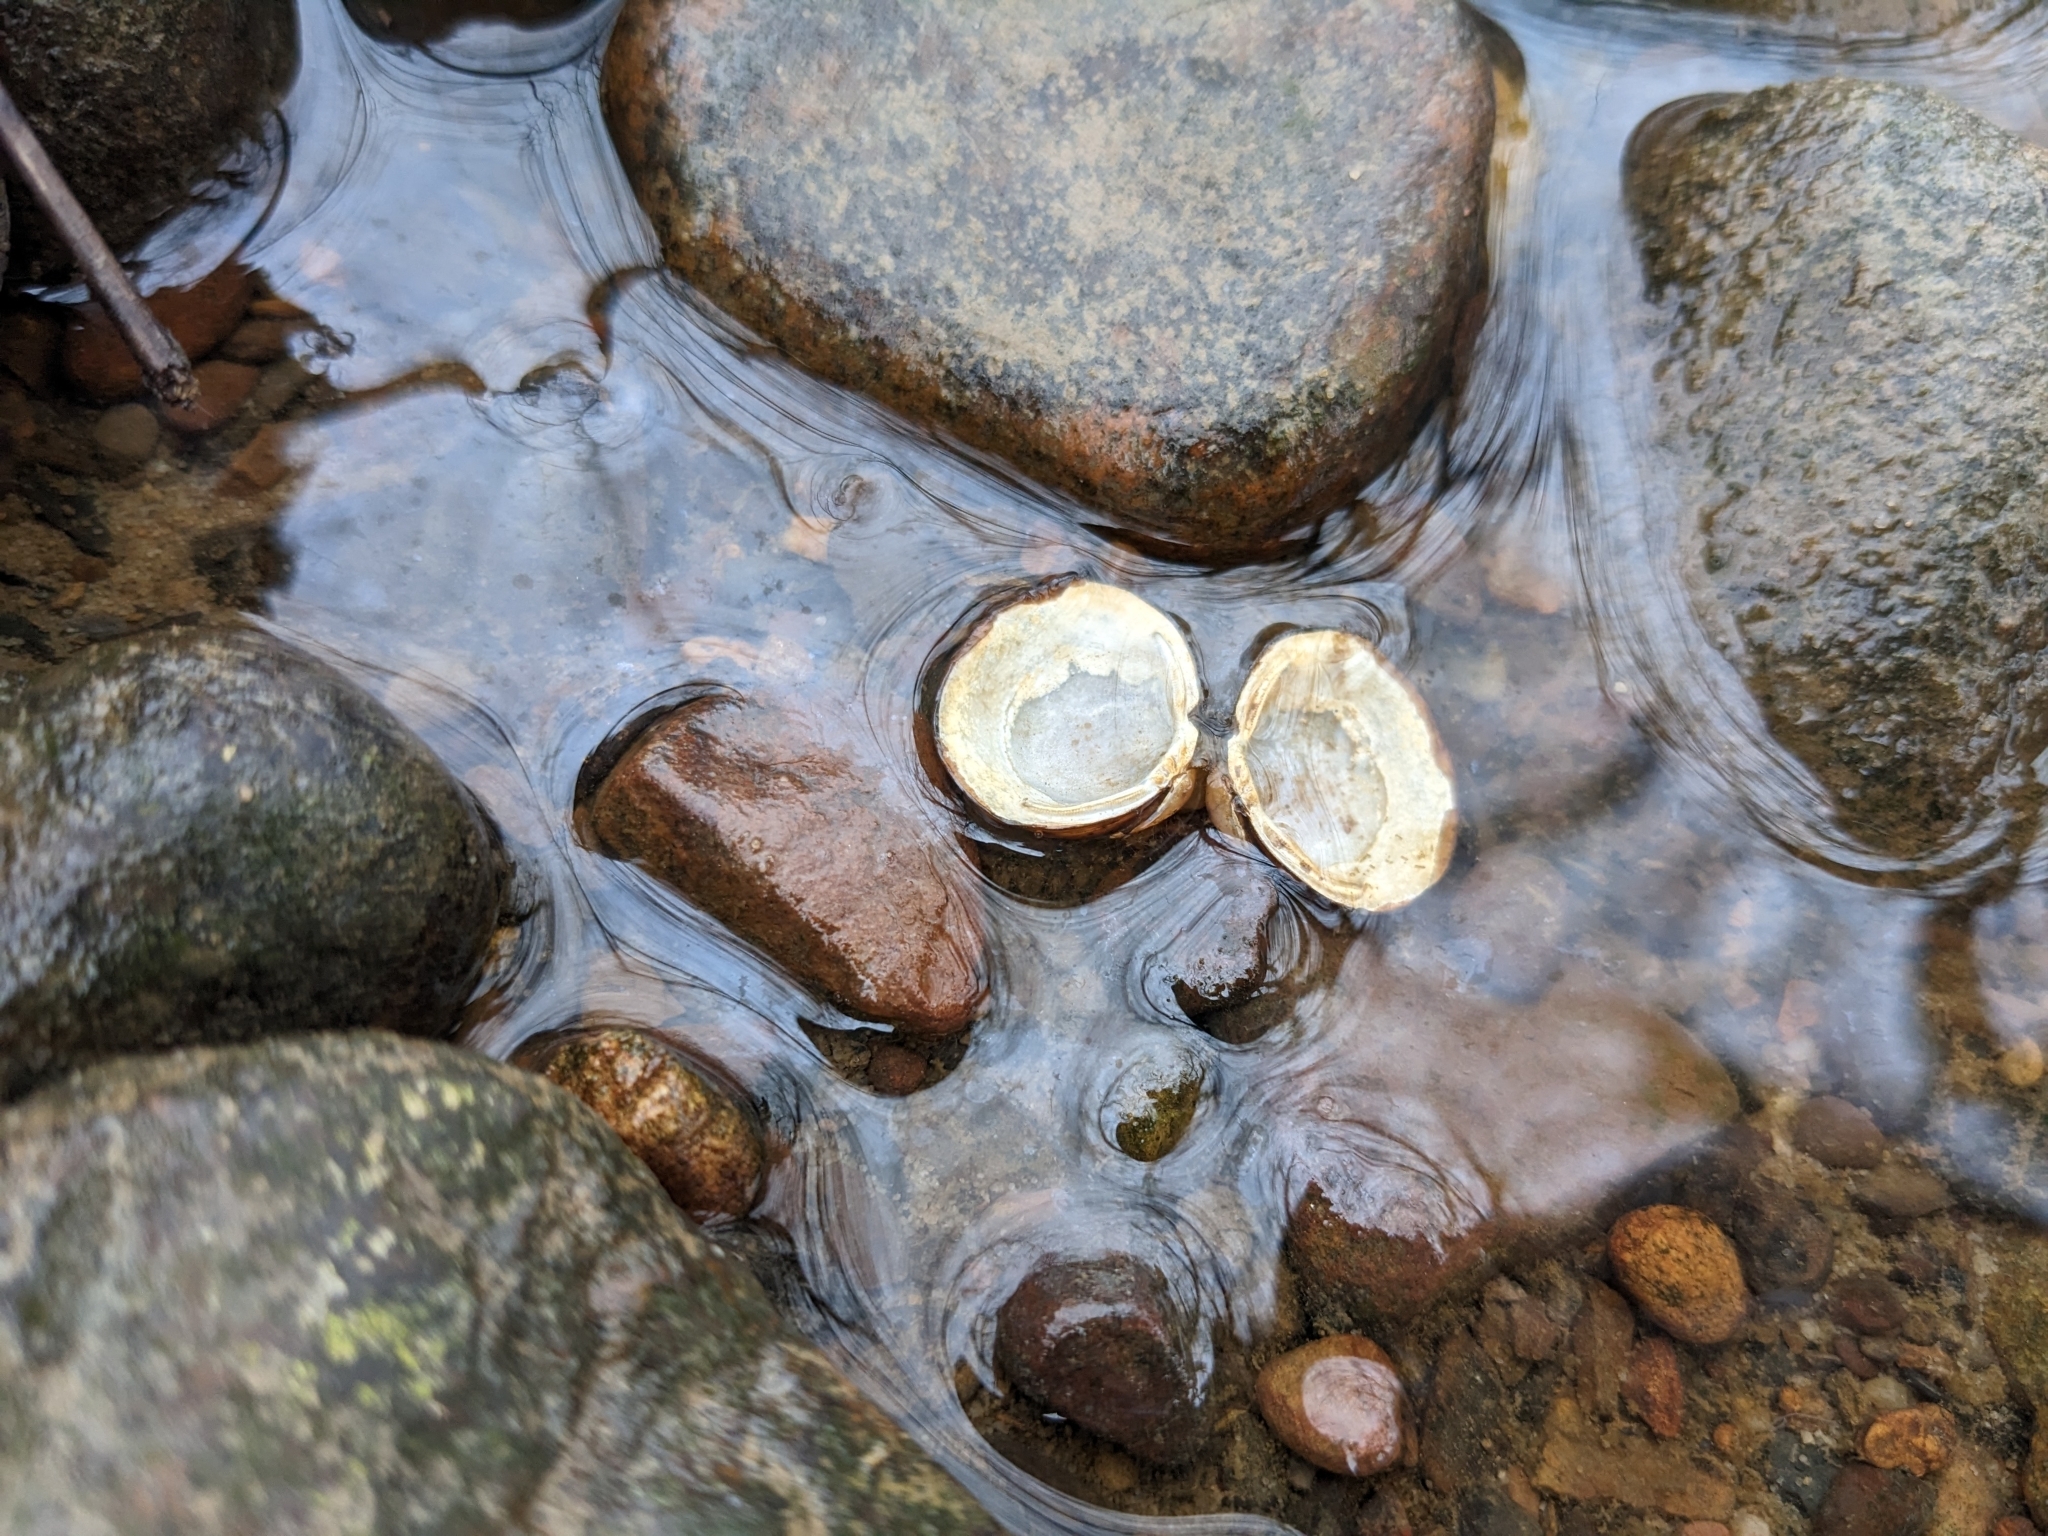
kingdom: Animalia
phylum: Mollusca
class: Bivalvia
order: Venerida
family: Cyrenidae
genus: Corbicula
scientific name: Corbicula fluminea
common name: Asian clam
